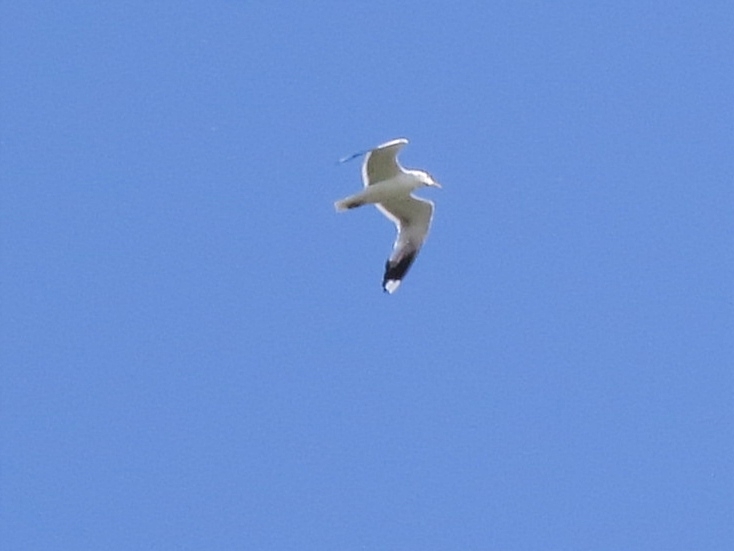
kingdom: Animalia
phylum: Chordata
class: Aves
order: Charadriiformes
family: Laridae
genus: Larus
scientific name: Larus canus
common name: Mew gull
